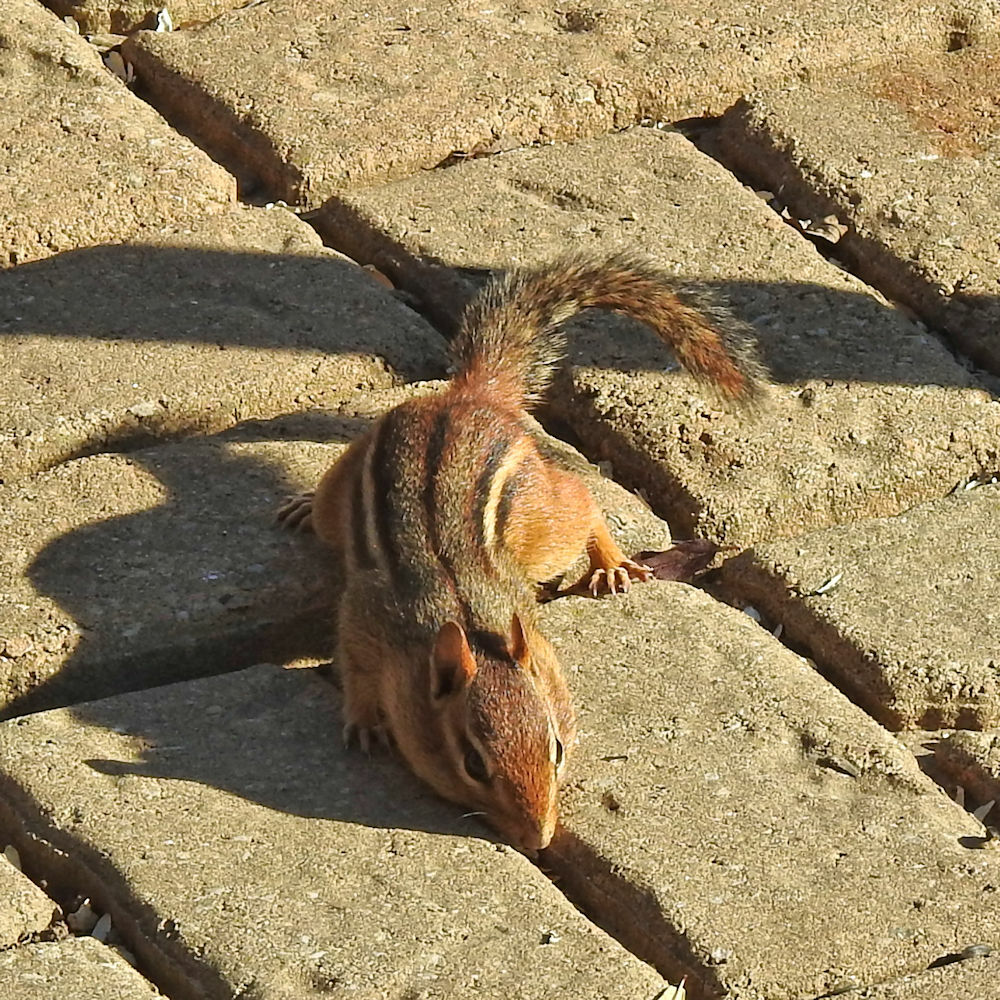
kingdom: Animalia
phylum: Chordata
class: Mammalia
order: Rodentia
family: Sciuridae
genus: Tamias
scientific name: Tamias striatus
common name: Eastern chipmunk
